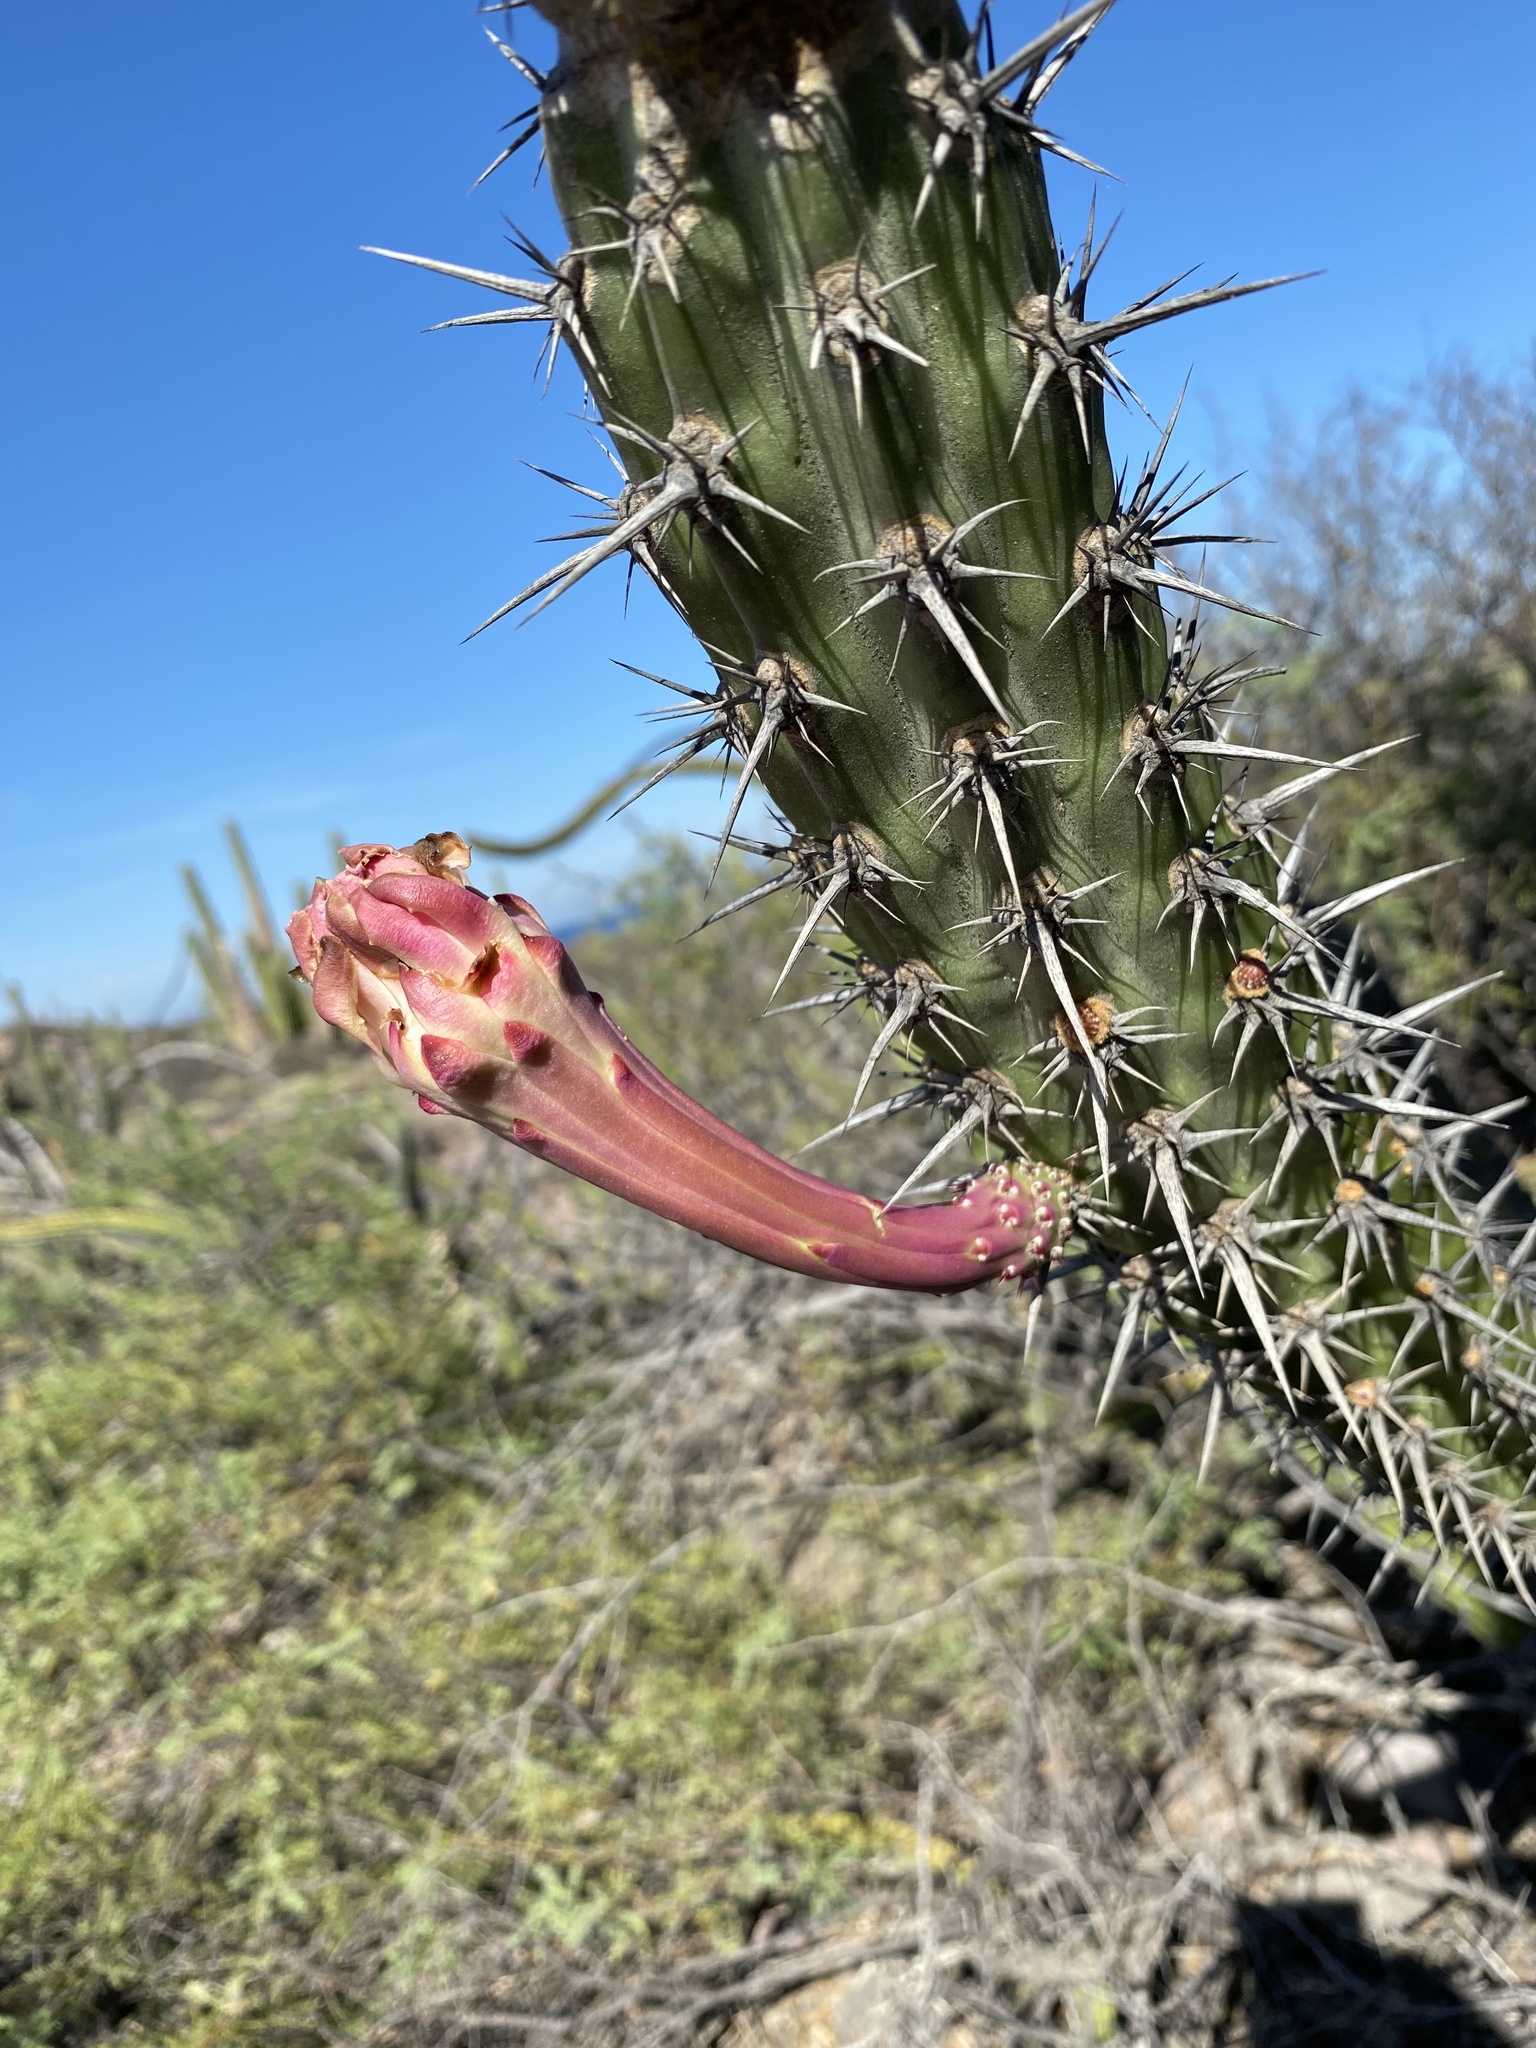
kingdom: Plantae
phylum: Tracheophyta
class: Magnoliopsida
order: Caryophyllales
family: Cactaceae
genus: Stenocereus
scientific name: Stenocereus gummosus
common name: Dagger cactus
